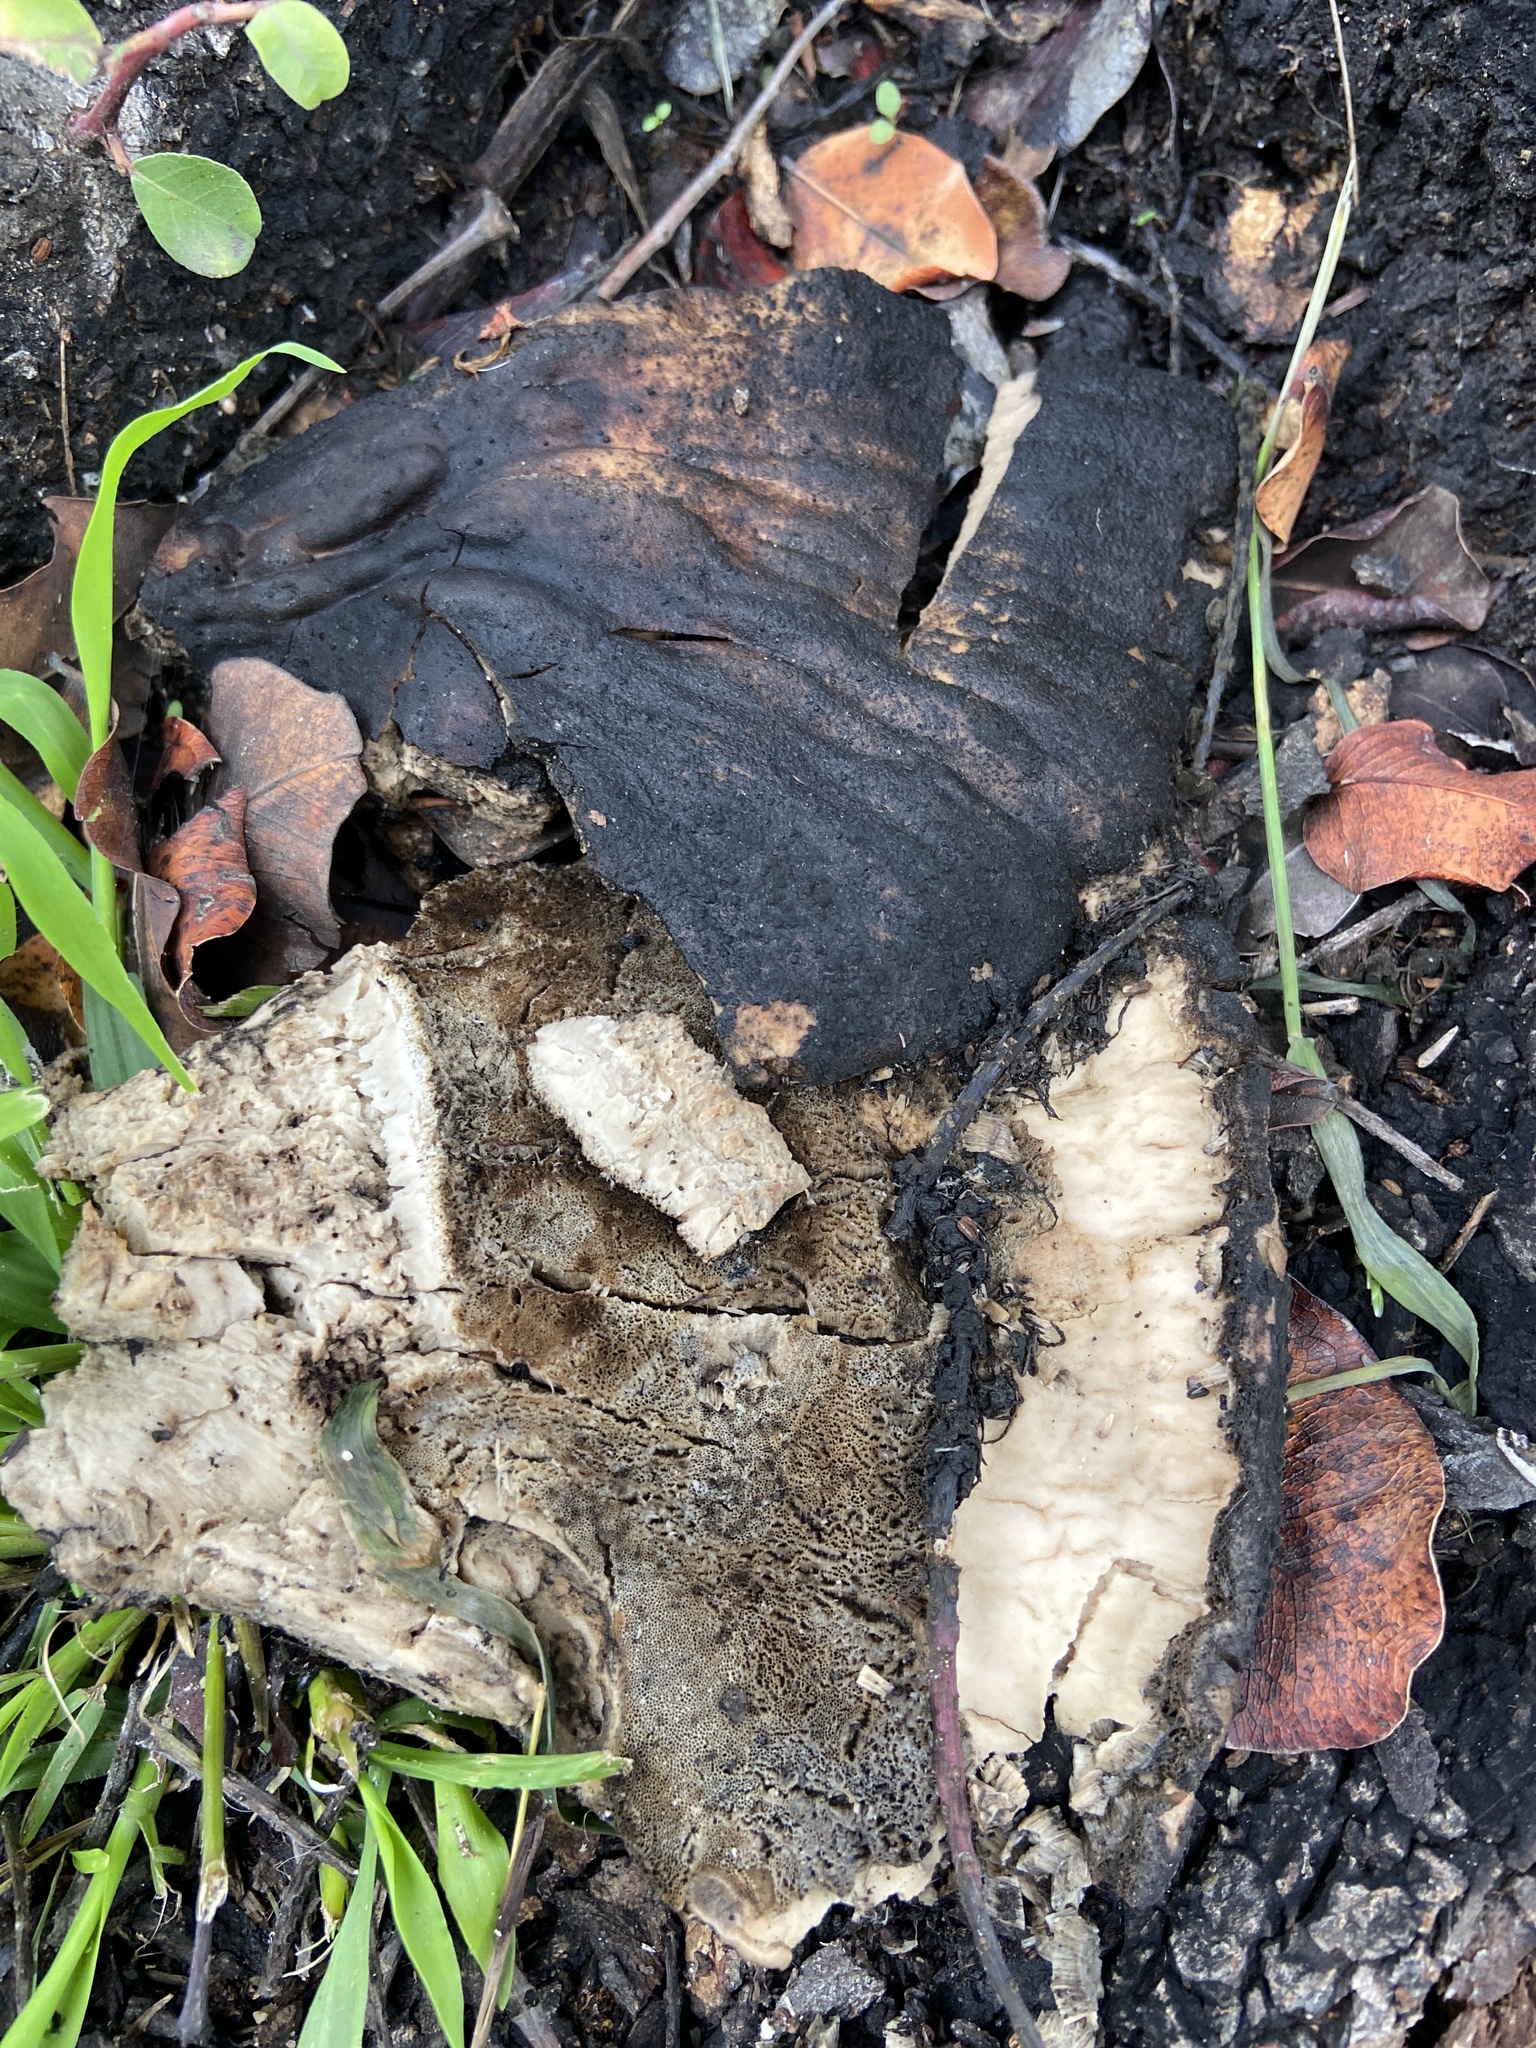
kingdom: Fungi
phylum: Basidiomycota
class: Agaricomycetes
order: Polyporales
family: Laetiporaceae
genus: Laetiporus
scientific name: Laetiporus gilbertsonii
